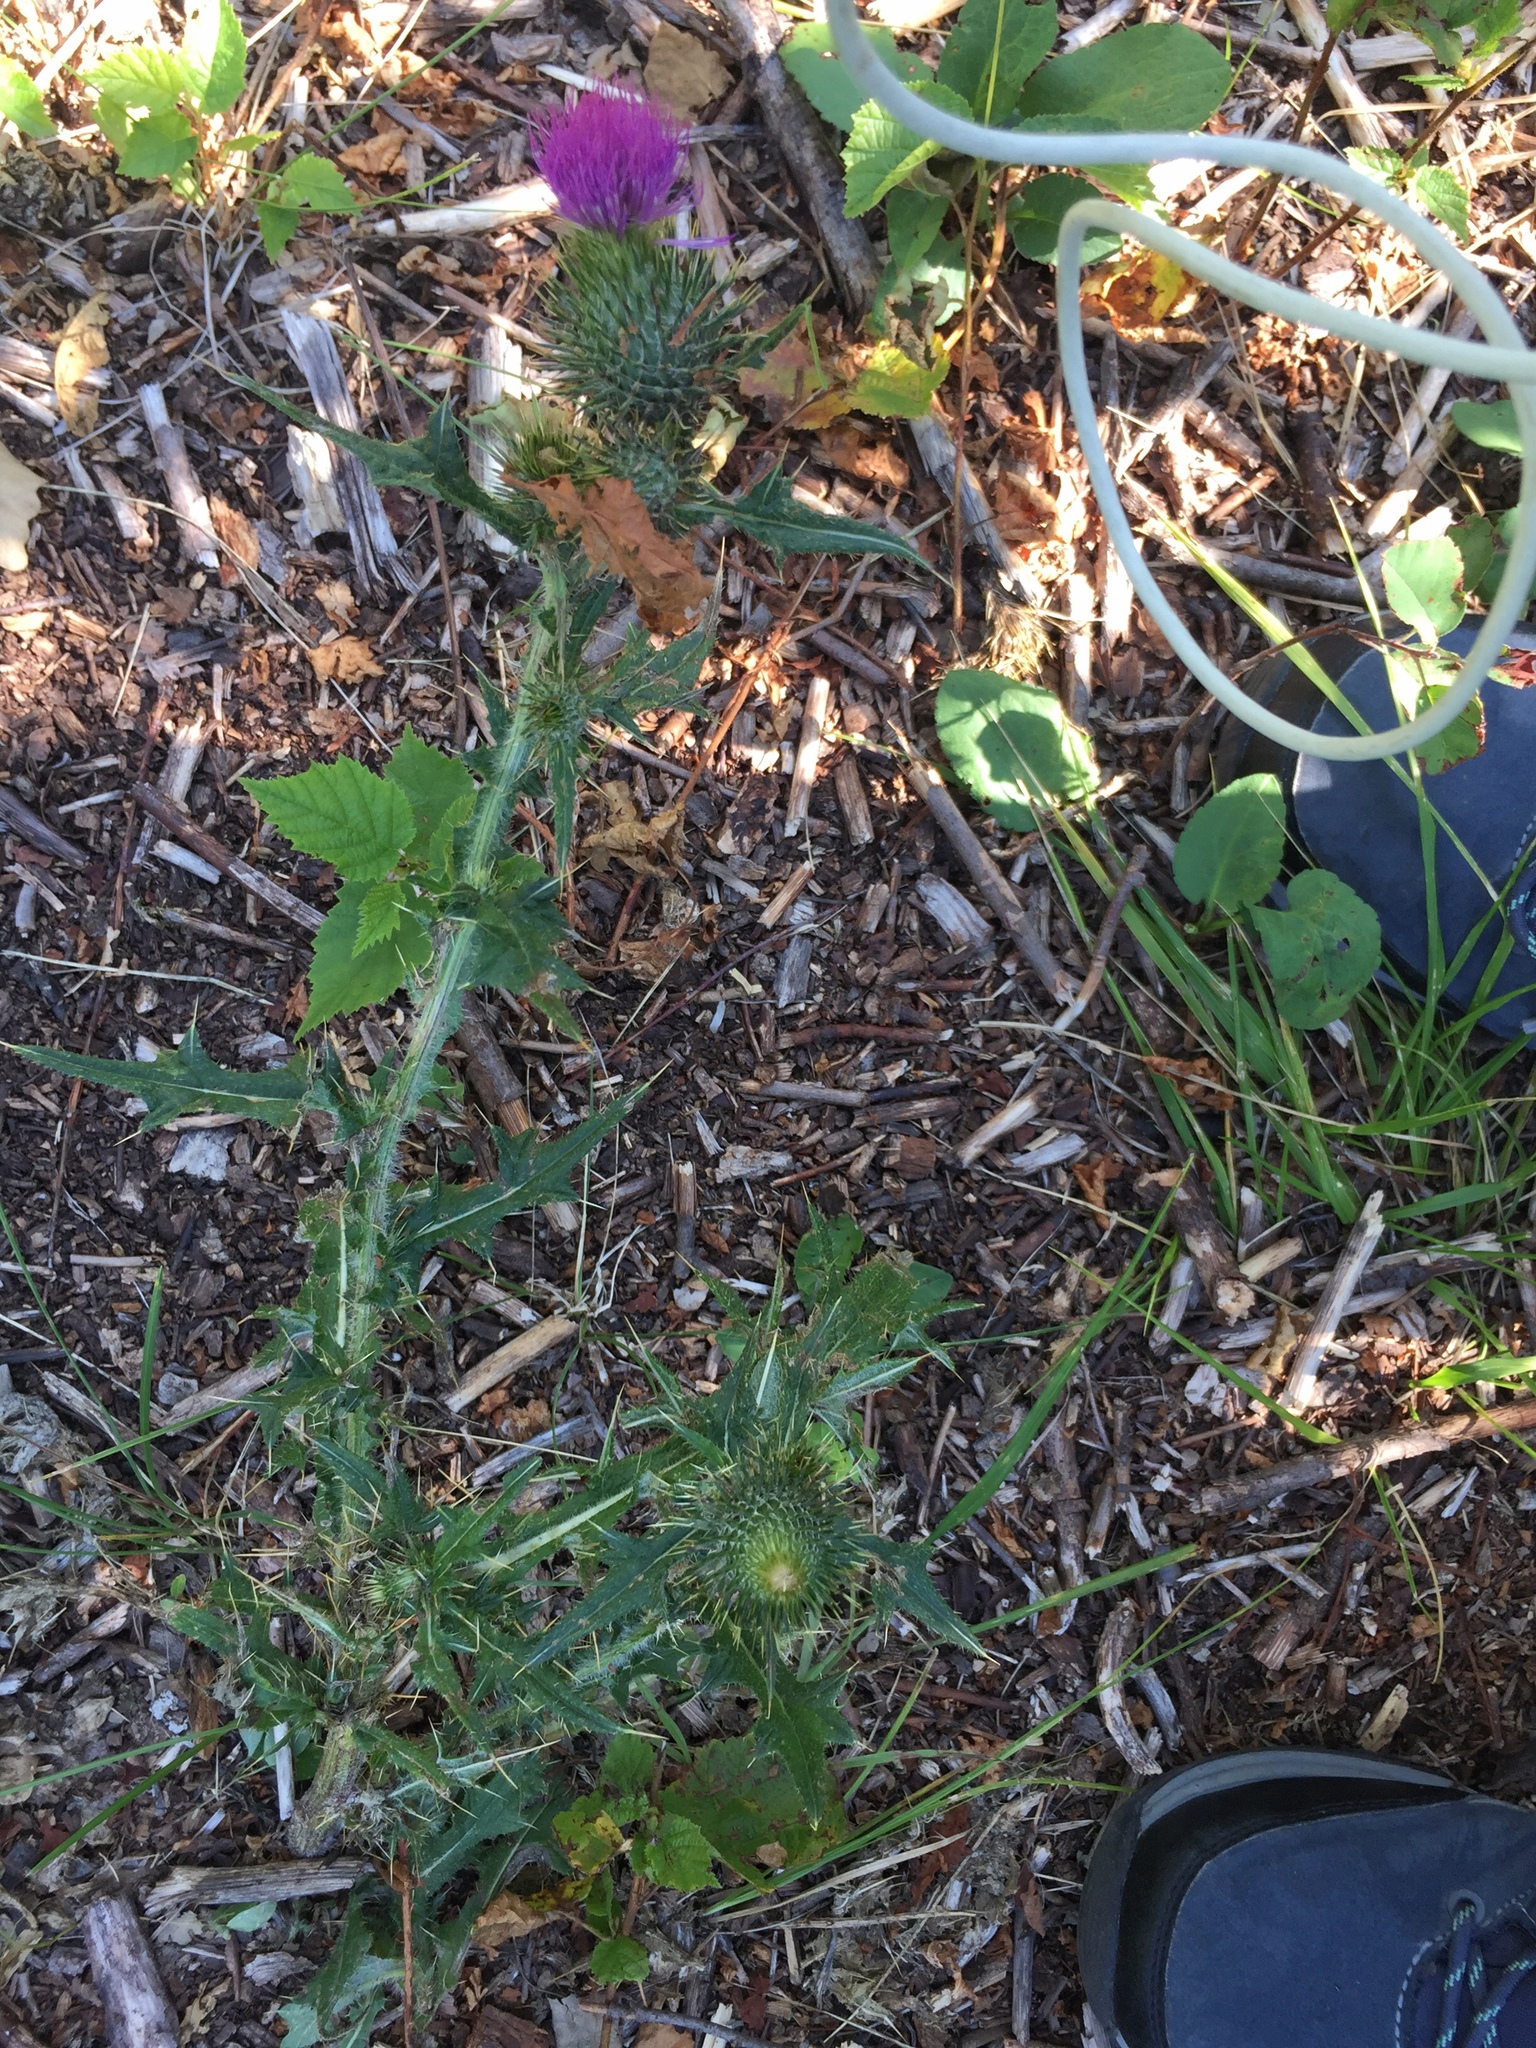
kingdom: Plantae
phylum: Tracheophyta
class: Magnoliopsida
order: Asterales
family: Asteraceae
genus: Cirsium
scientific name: Cirsium vulgare
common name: Bull thistle
